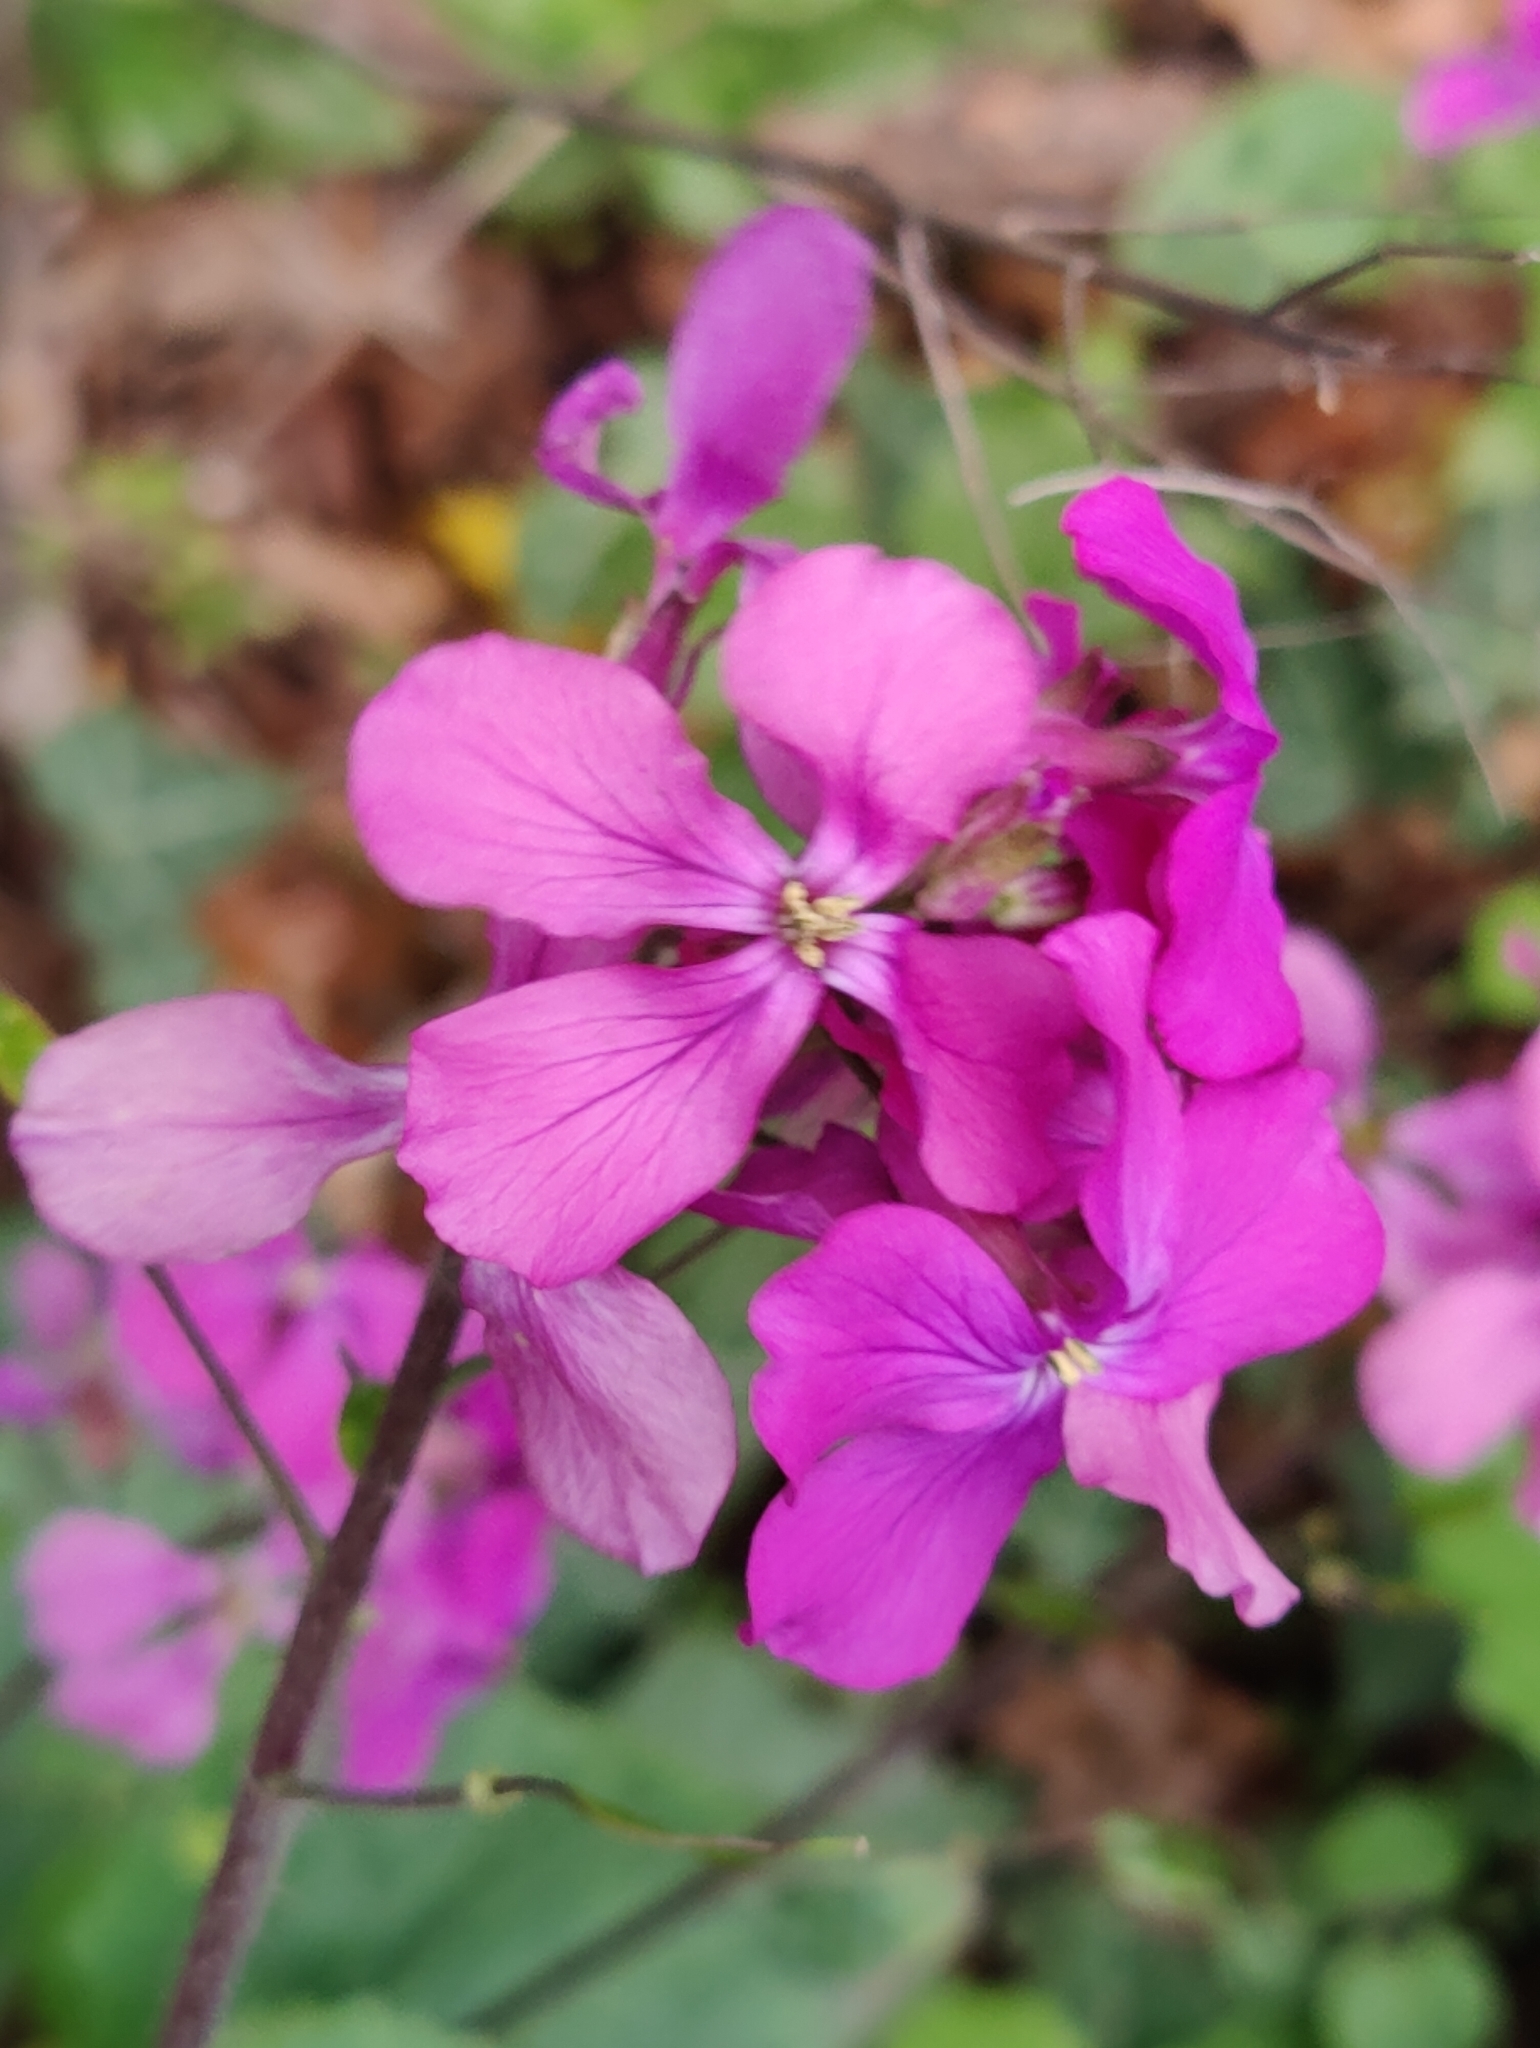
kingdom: Plantae
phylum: Tracheophyta
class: Magnoliopsida
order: Brassicales
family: Brassicaceae
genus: Lunaria
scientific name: Lunaria annua
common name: Honesty
